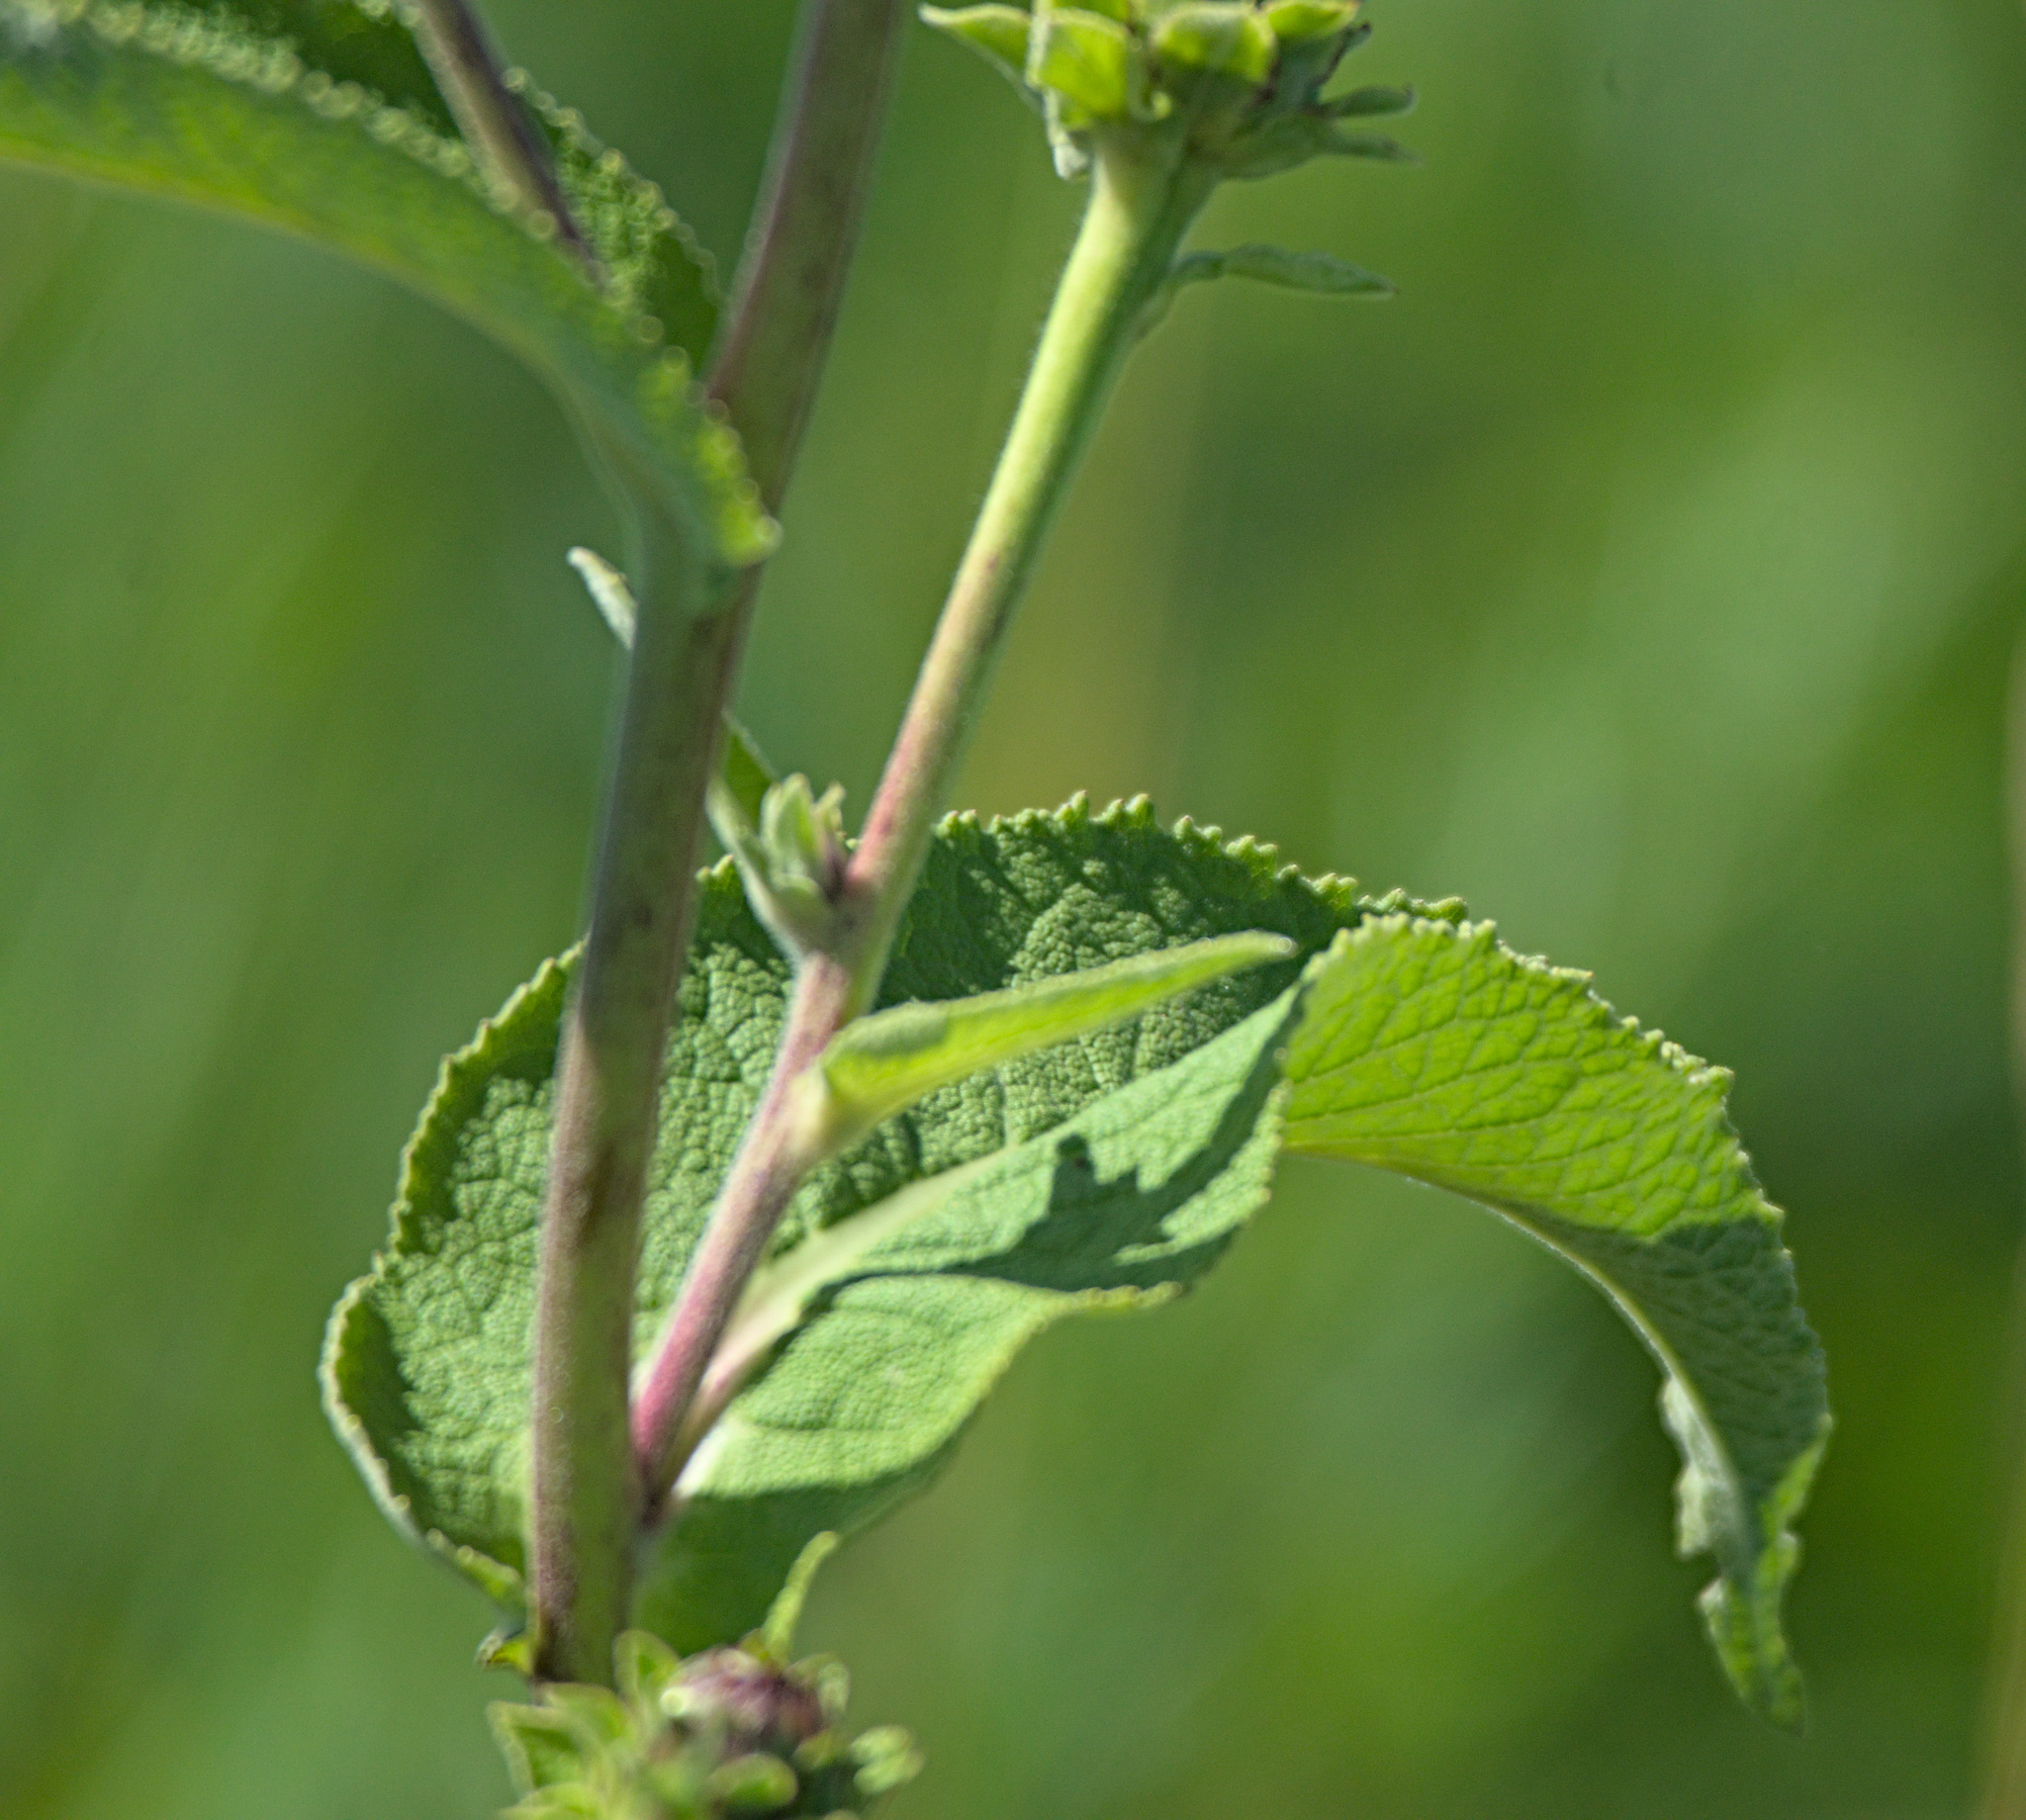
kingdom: Plantae
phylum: Tracheophyta
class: Magnoliopsida
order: Asterales
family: Asteraceae
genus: Inula
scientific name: Inula helenium
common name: Elecampane
